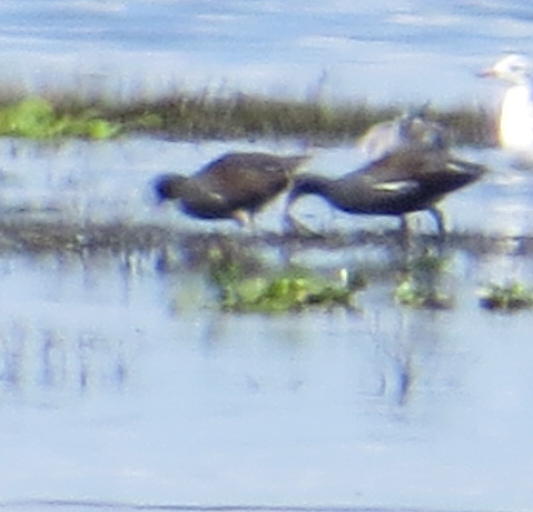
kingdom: Animalia
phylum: Chordata
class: Aves
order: Gruiformes
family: Rallidae
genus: Gallinula
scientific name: Gallinula chloropus
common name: Common moorhen
